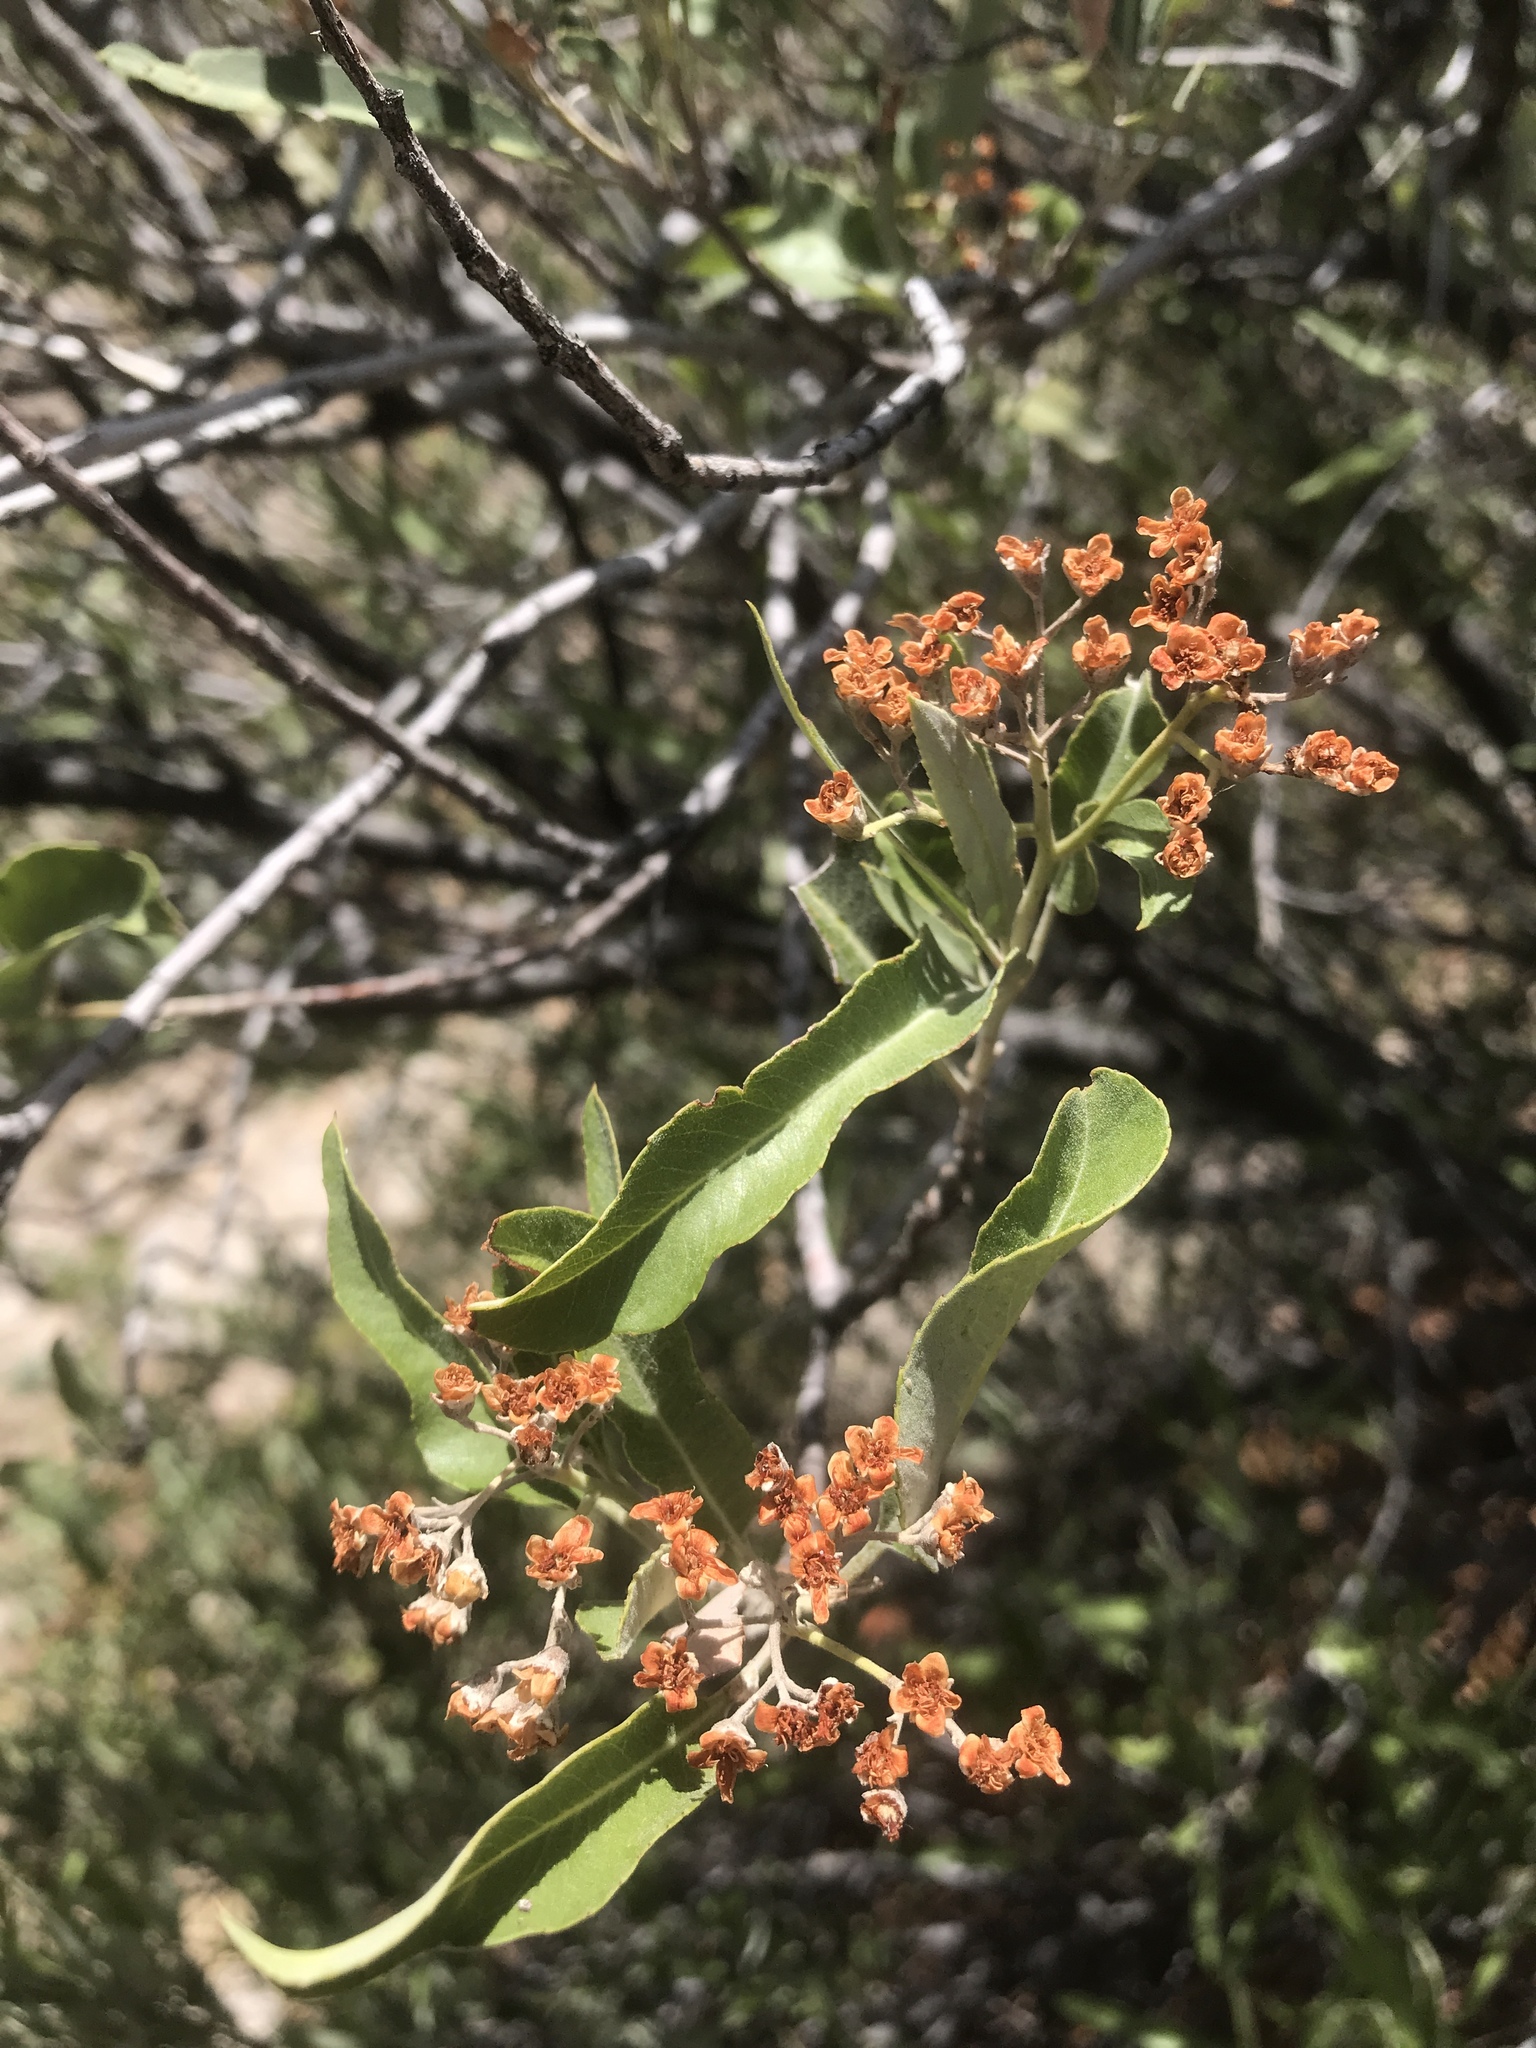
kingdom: Plantae
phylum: Tracheophyta
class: Magnoliopsida
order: Rosales
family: Rosaceae
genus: Vauquelinia
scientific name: Vauquelinia californica
